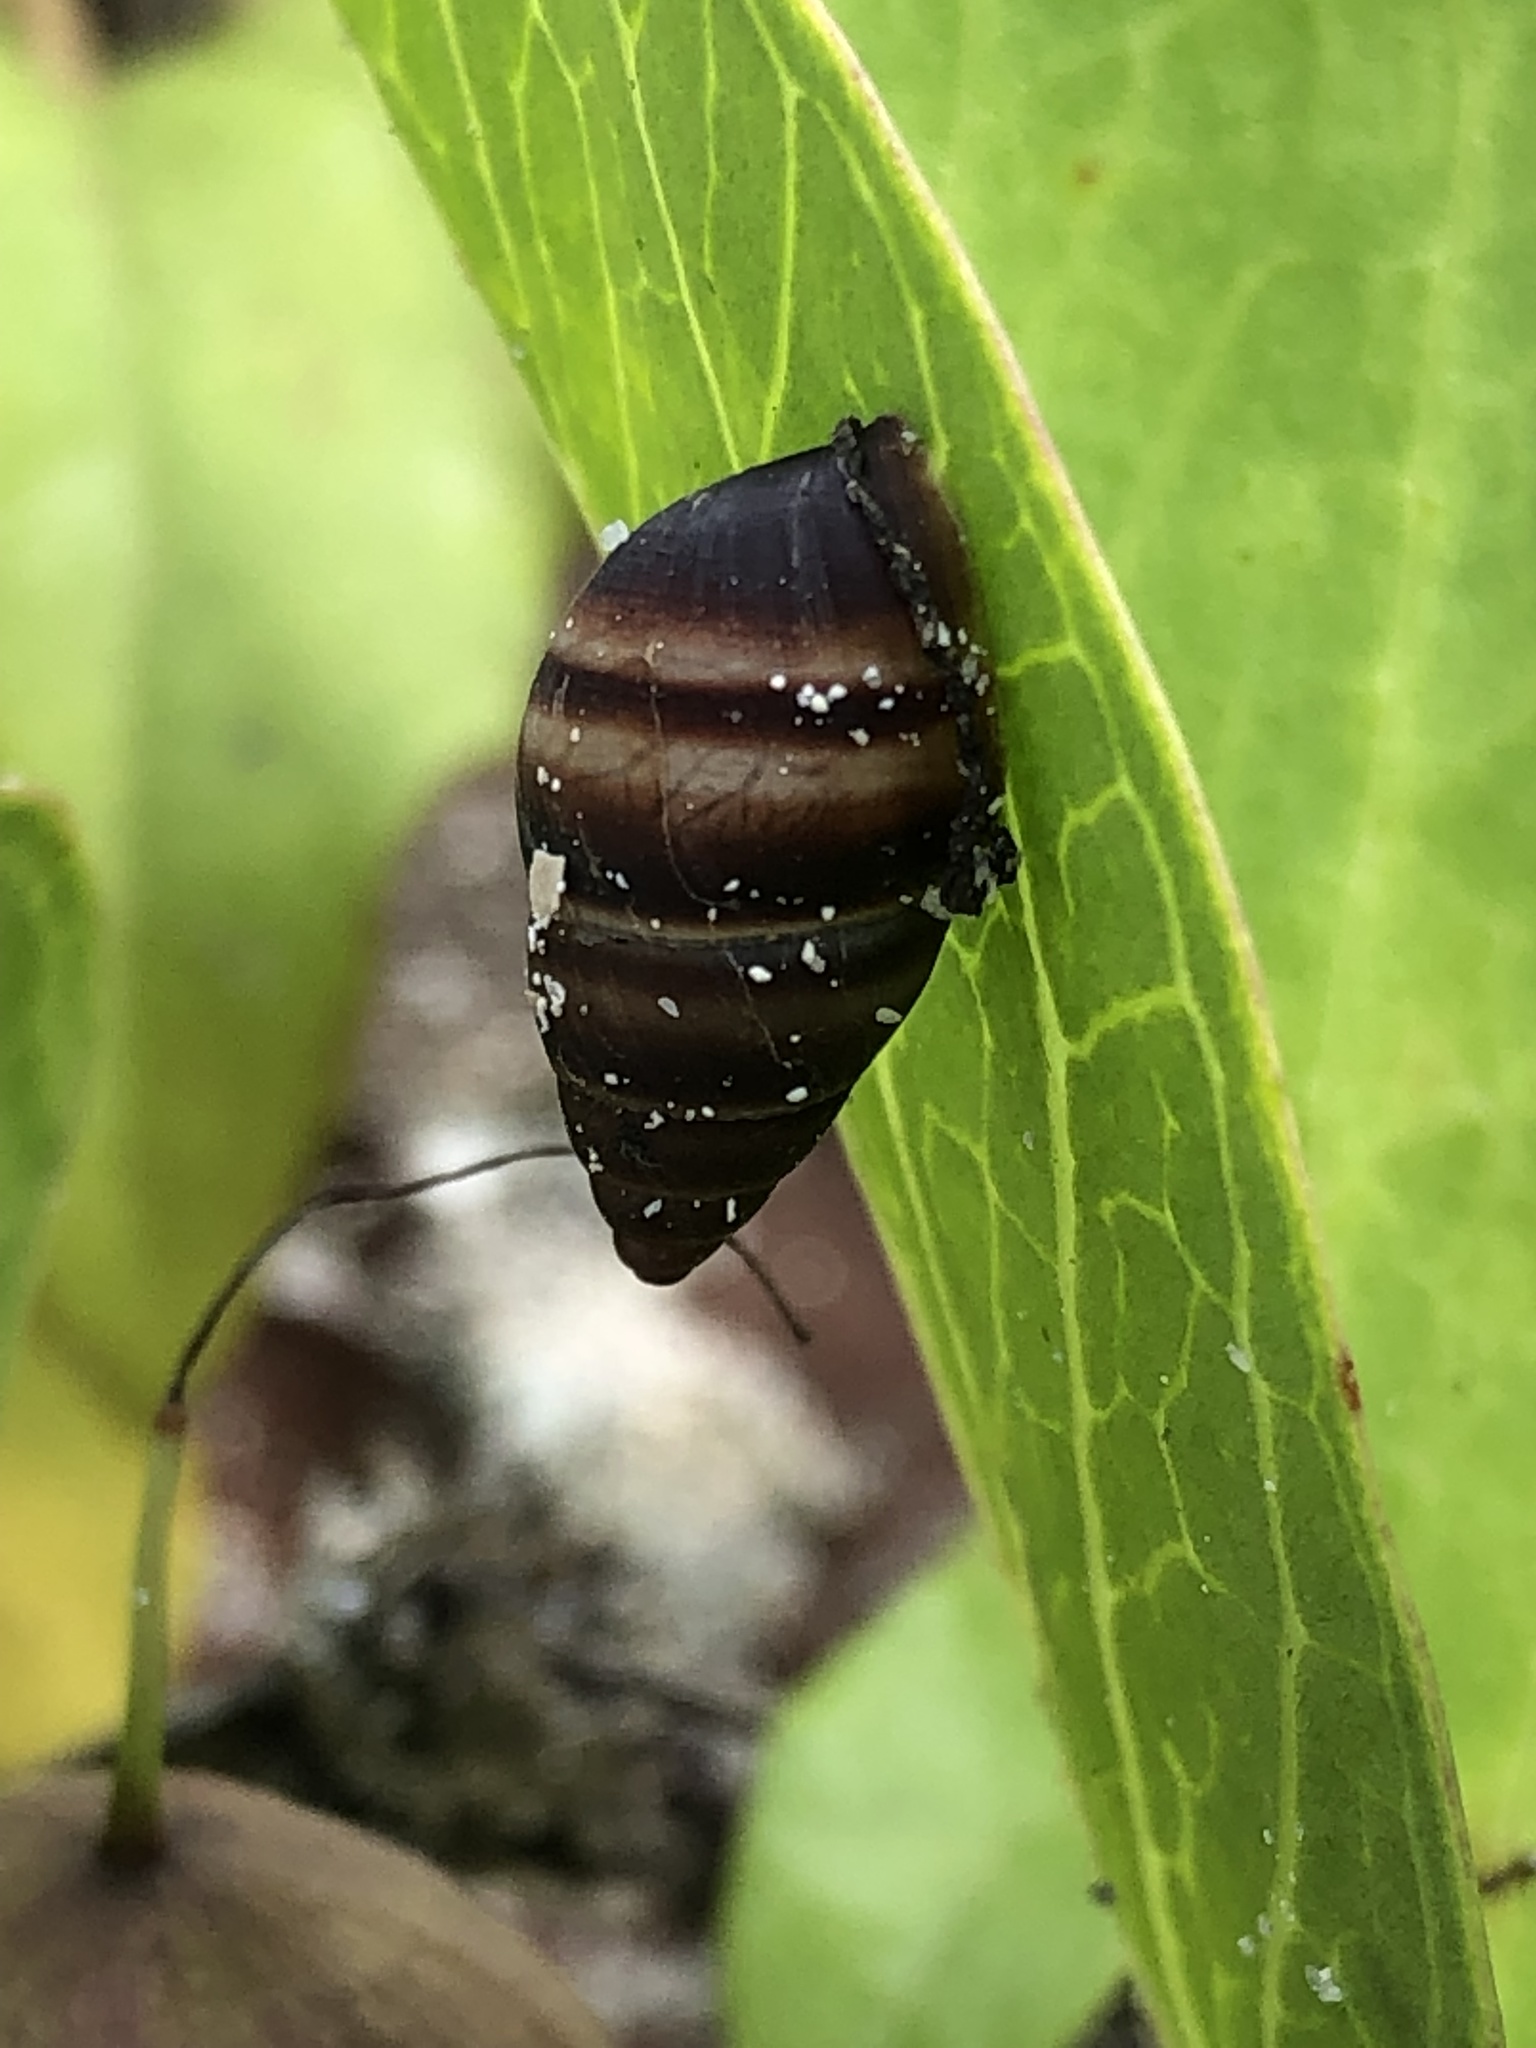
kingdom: Animalia
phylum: Mollusca
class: Gastropoda
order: Stylommatophora
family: Bulimulidae
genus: Bulimulus
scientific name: Bulimulus guadalupensis
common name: West indian bulimulus
